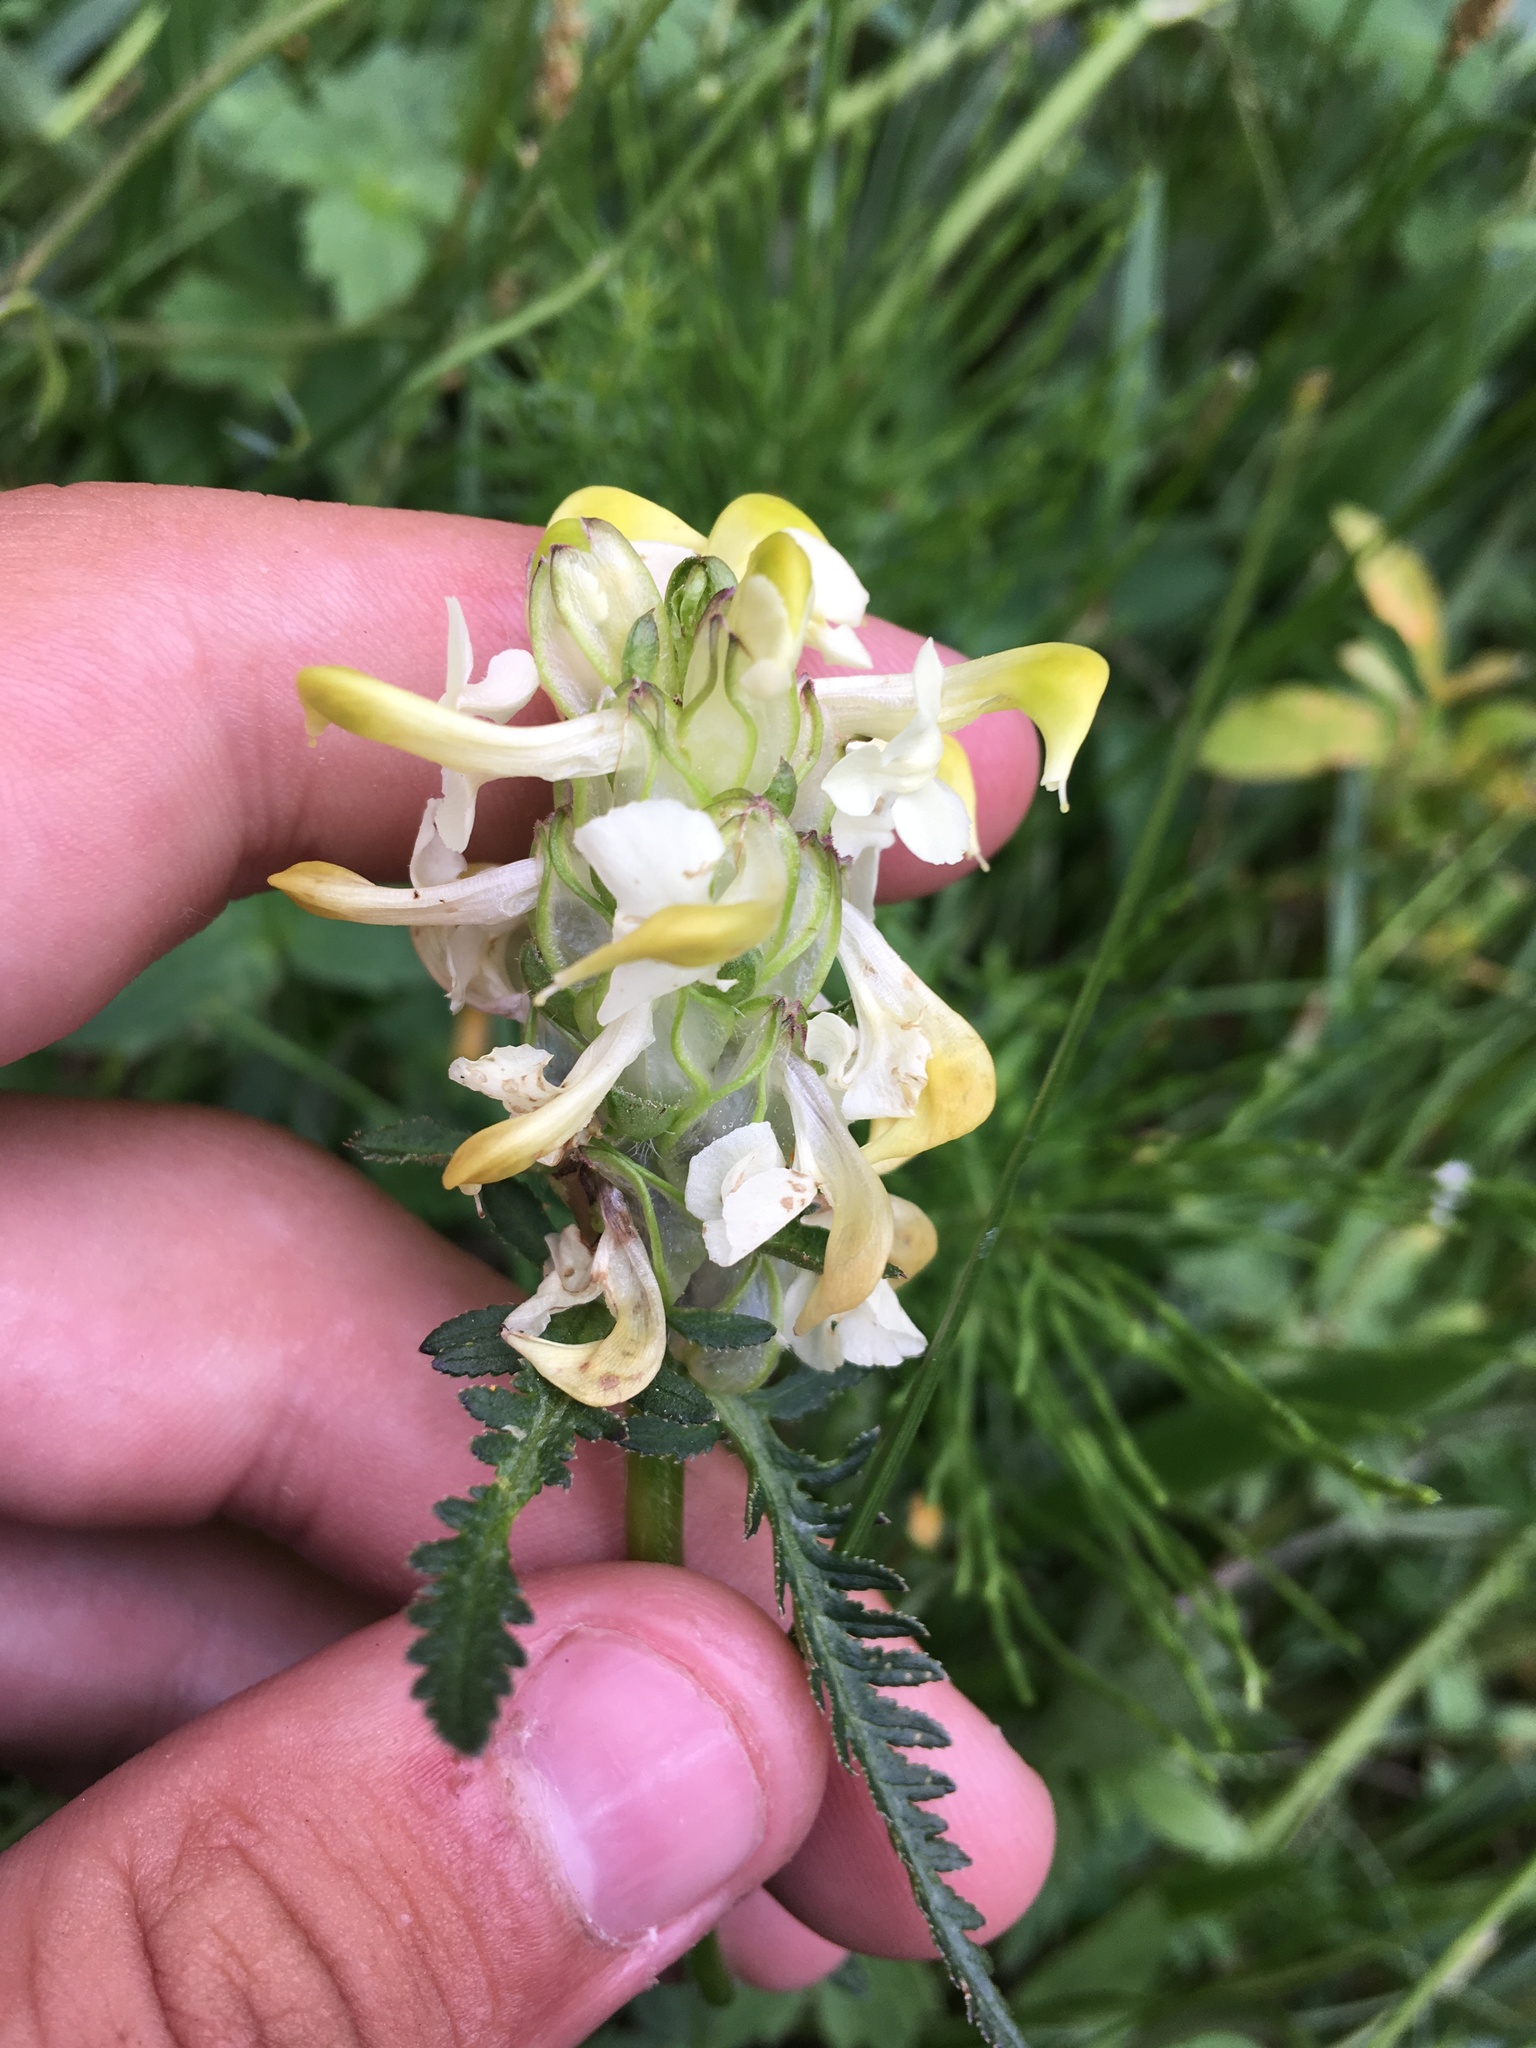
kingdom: Plantae
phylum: Tracheophyta
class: Magnoliopsida
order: Lamiales
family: Orobanchaceae
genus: Pedicularis
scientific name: Pedicularis compacta
